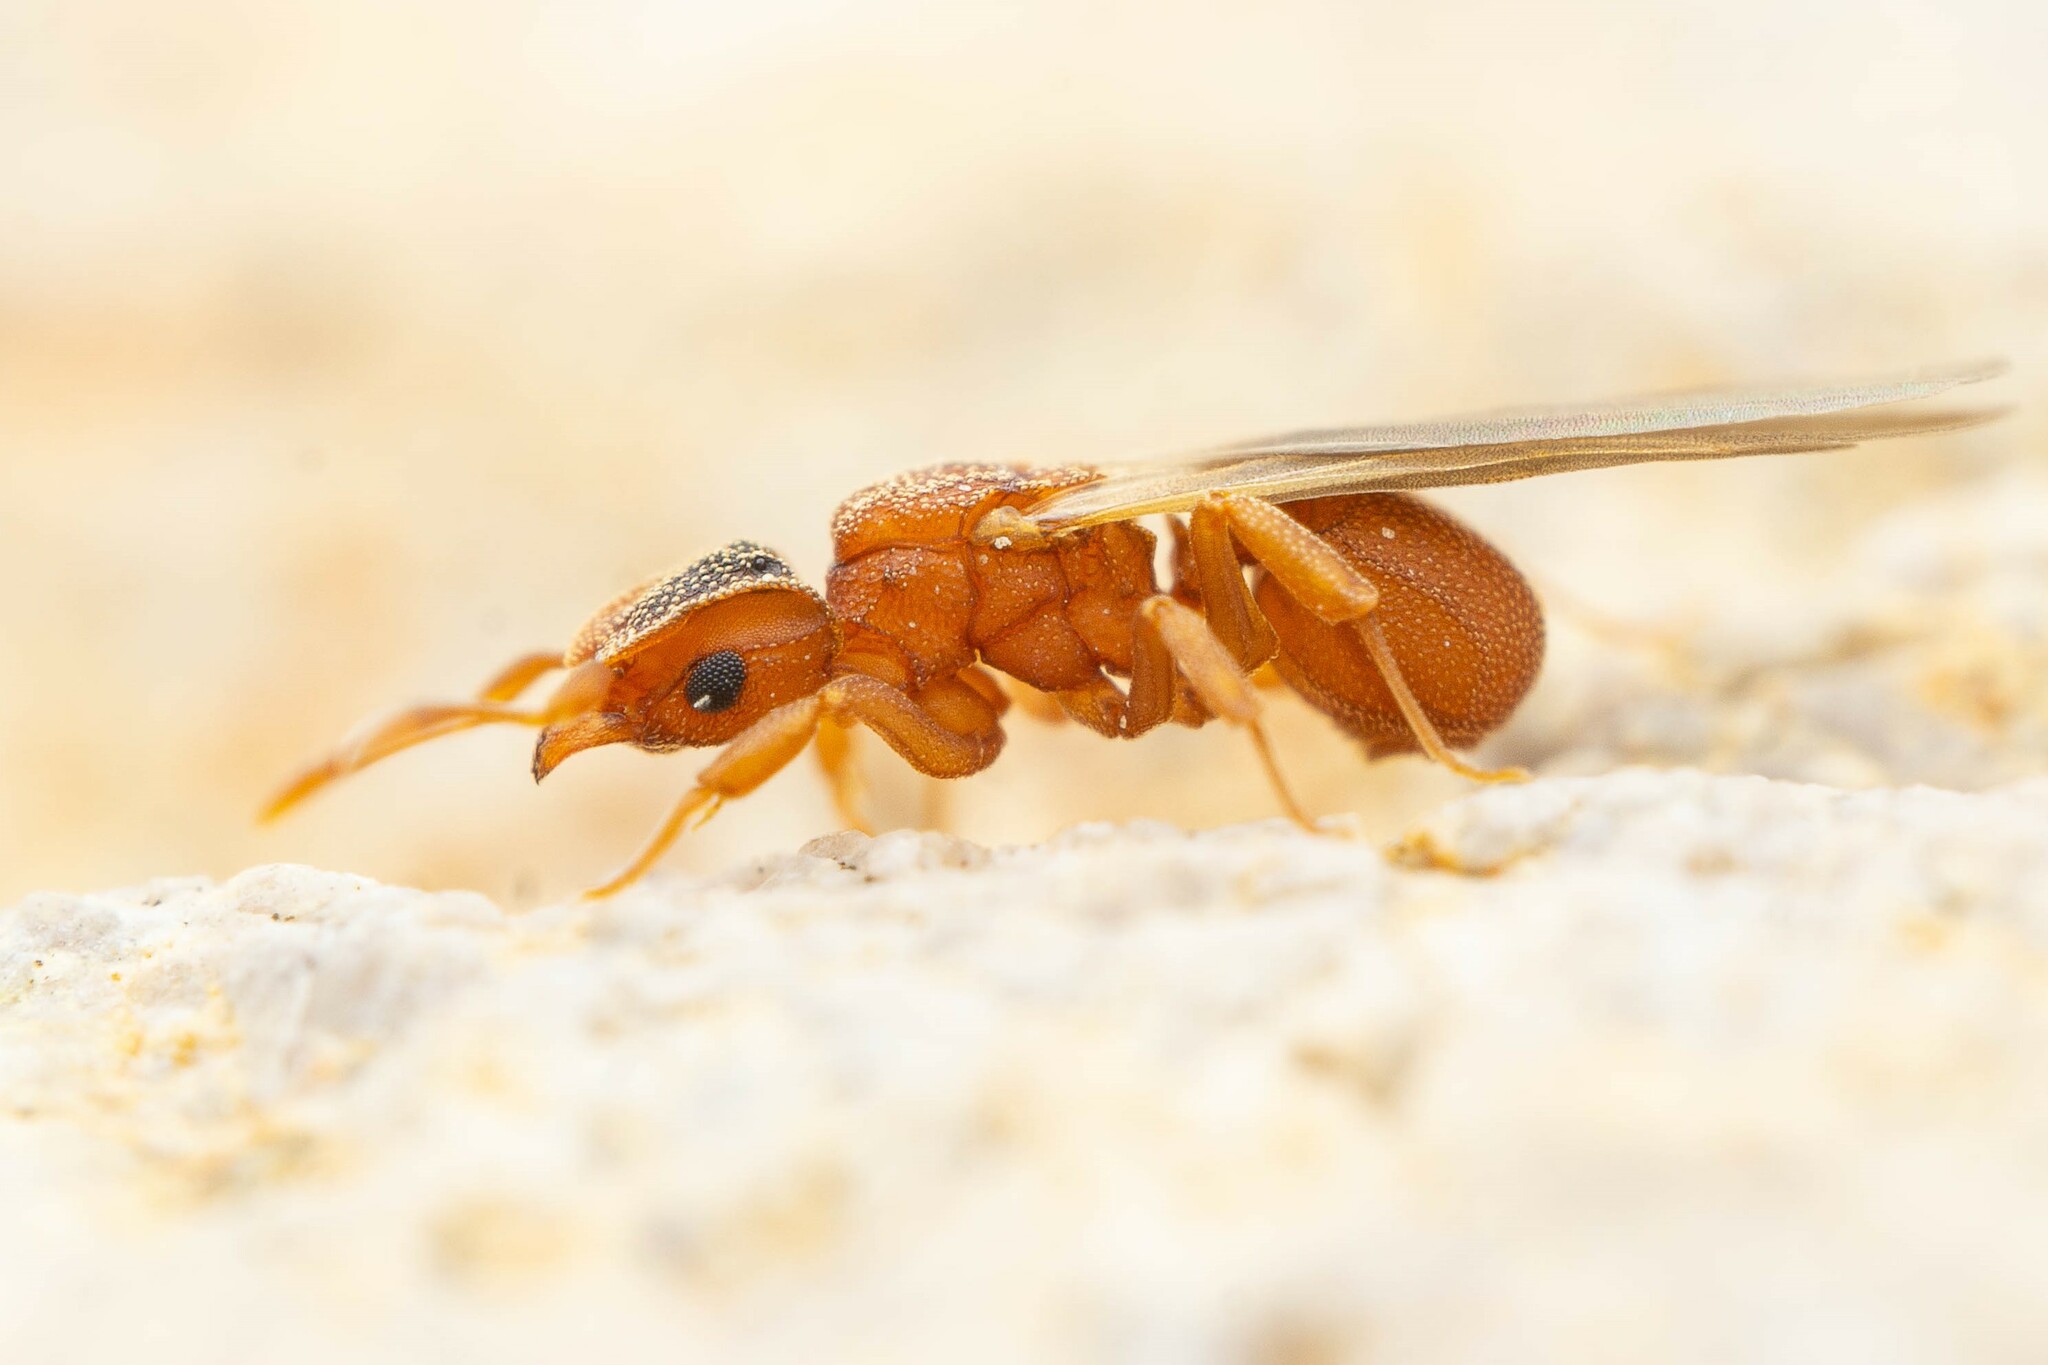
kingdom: Animalia
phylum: Arthropoda
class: Insecta
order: Hymenoptera
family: Formicidae
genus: Cyphomyrmex
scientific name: Cyphomyrmex wheeleri
